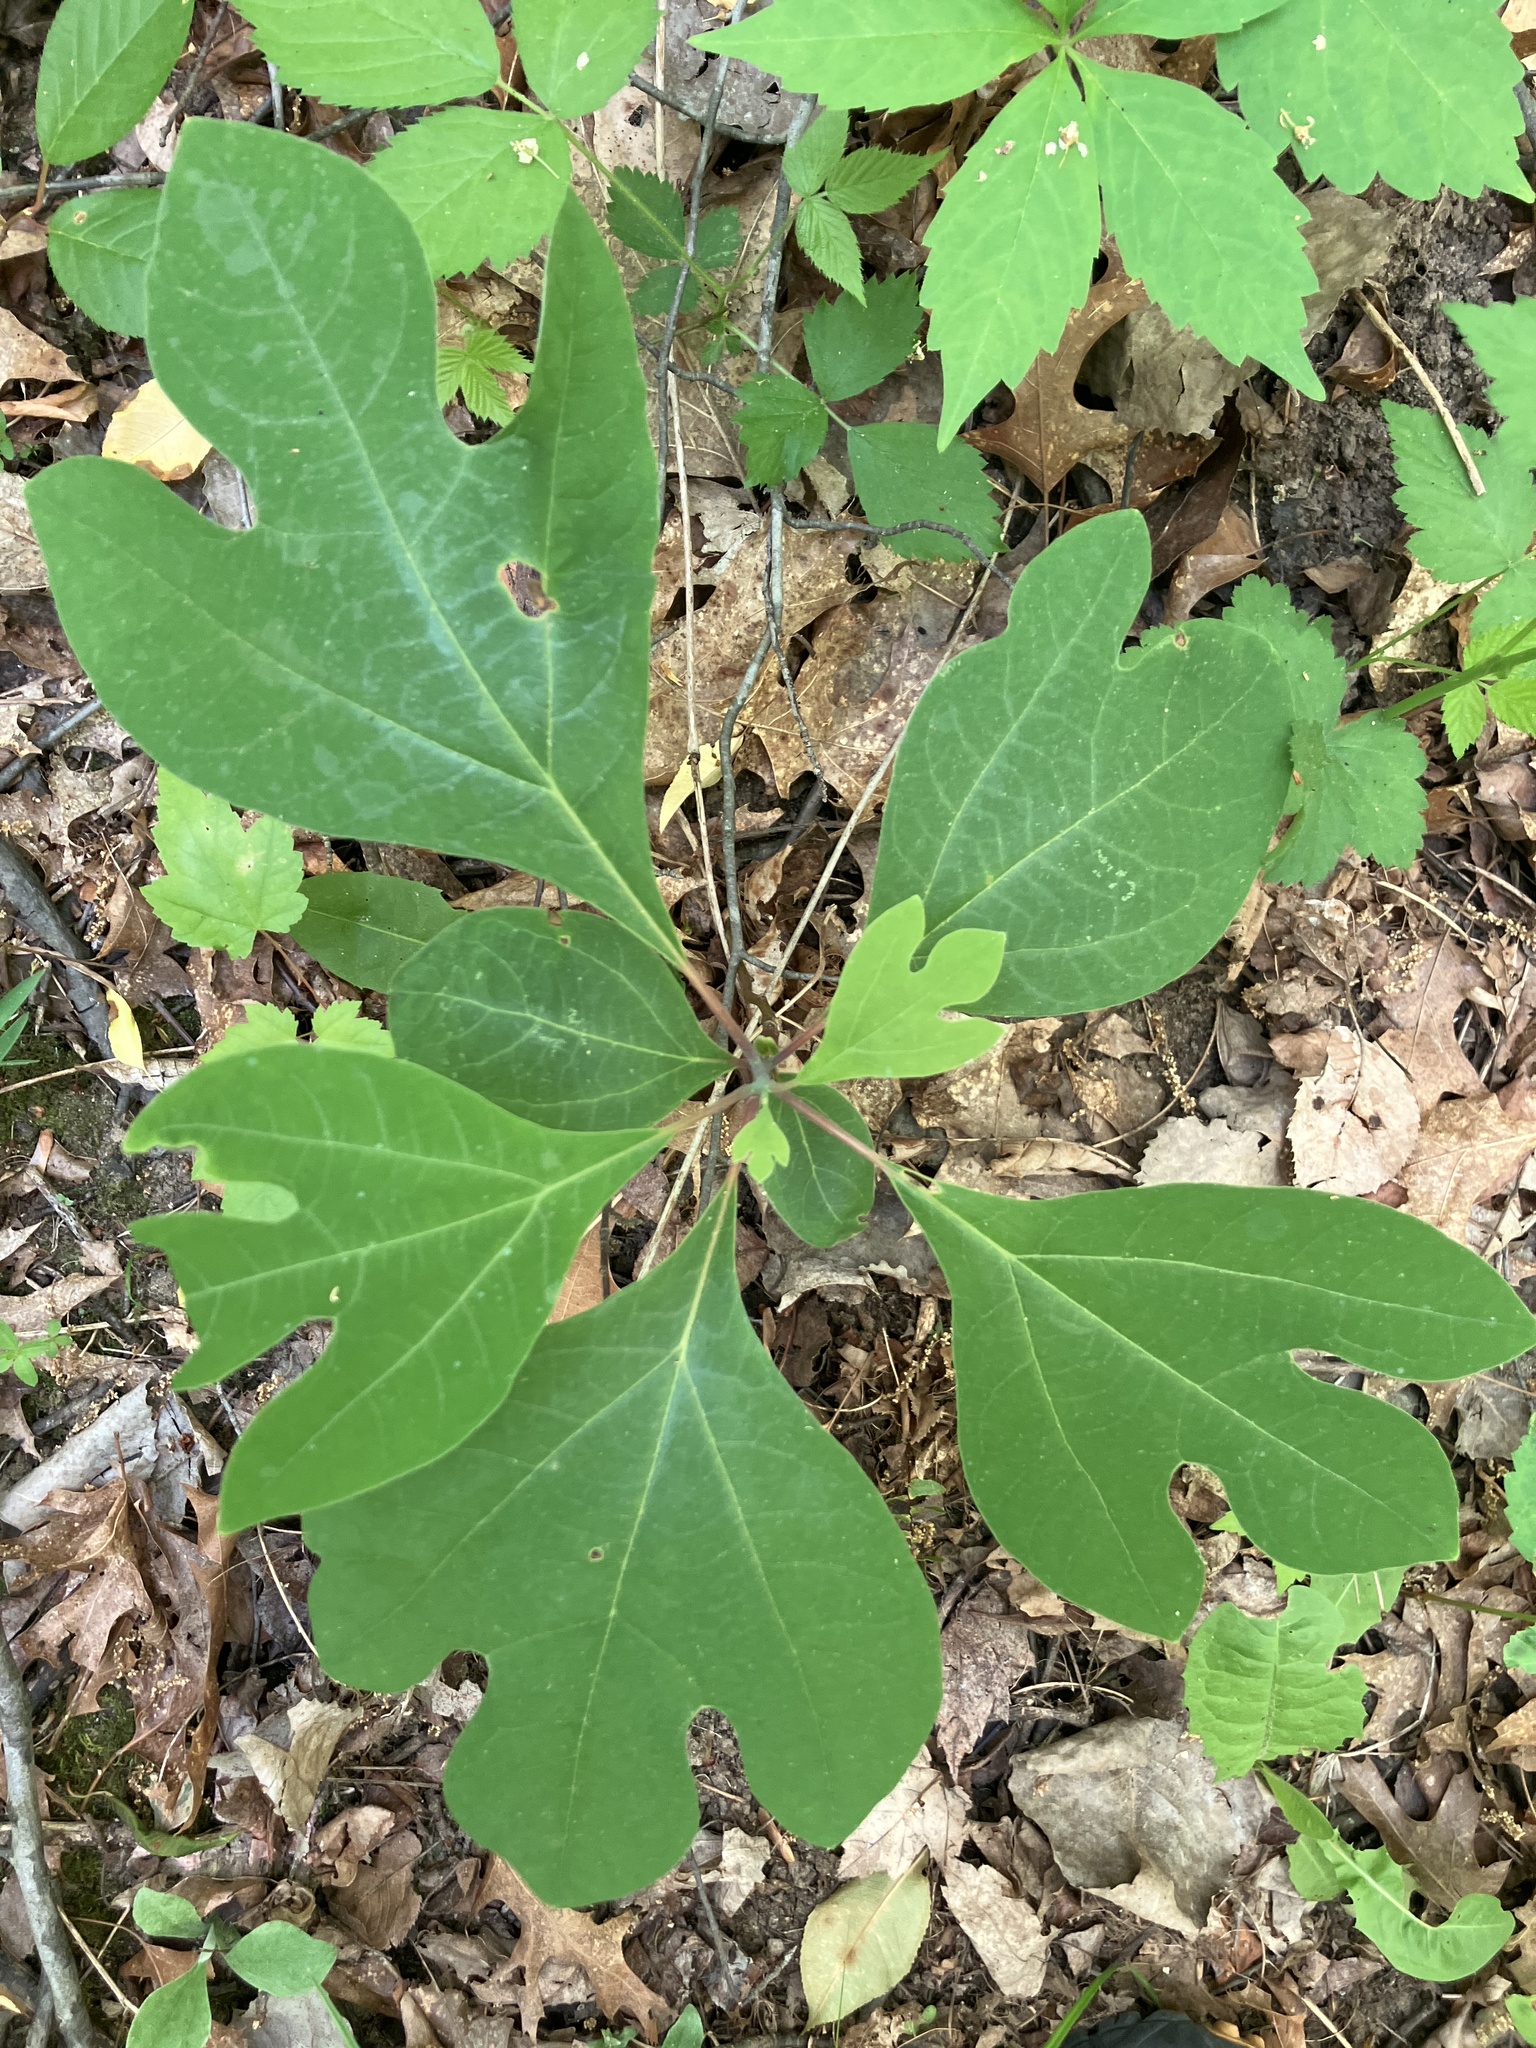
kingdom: Plantae
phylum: Tracheophyta
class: Magnoliopsida
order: Laurales
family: Lauraceae
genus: Sassafras
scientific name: Sassafras albidum
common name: Sassafras
